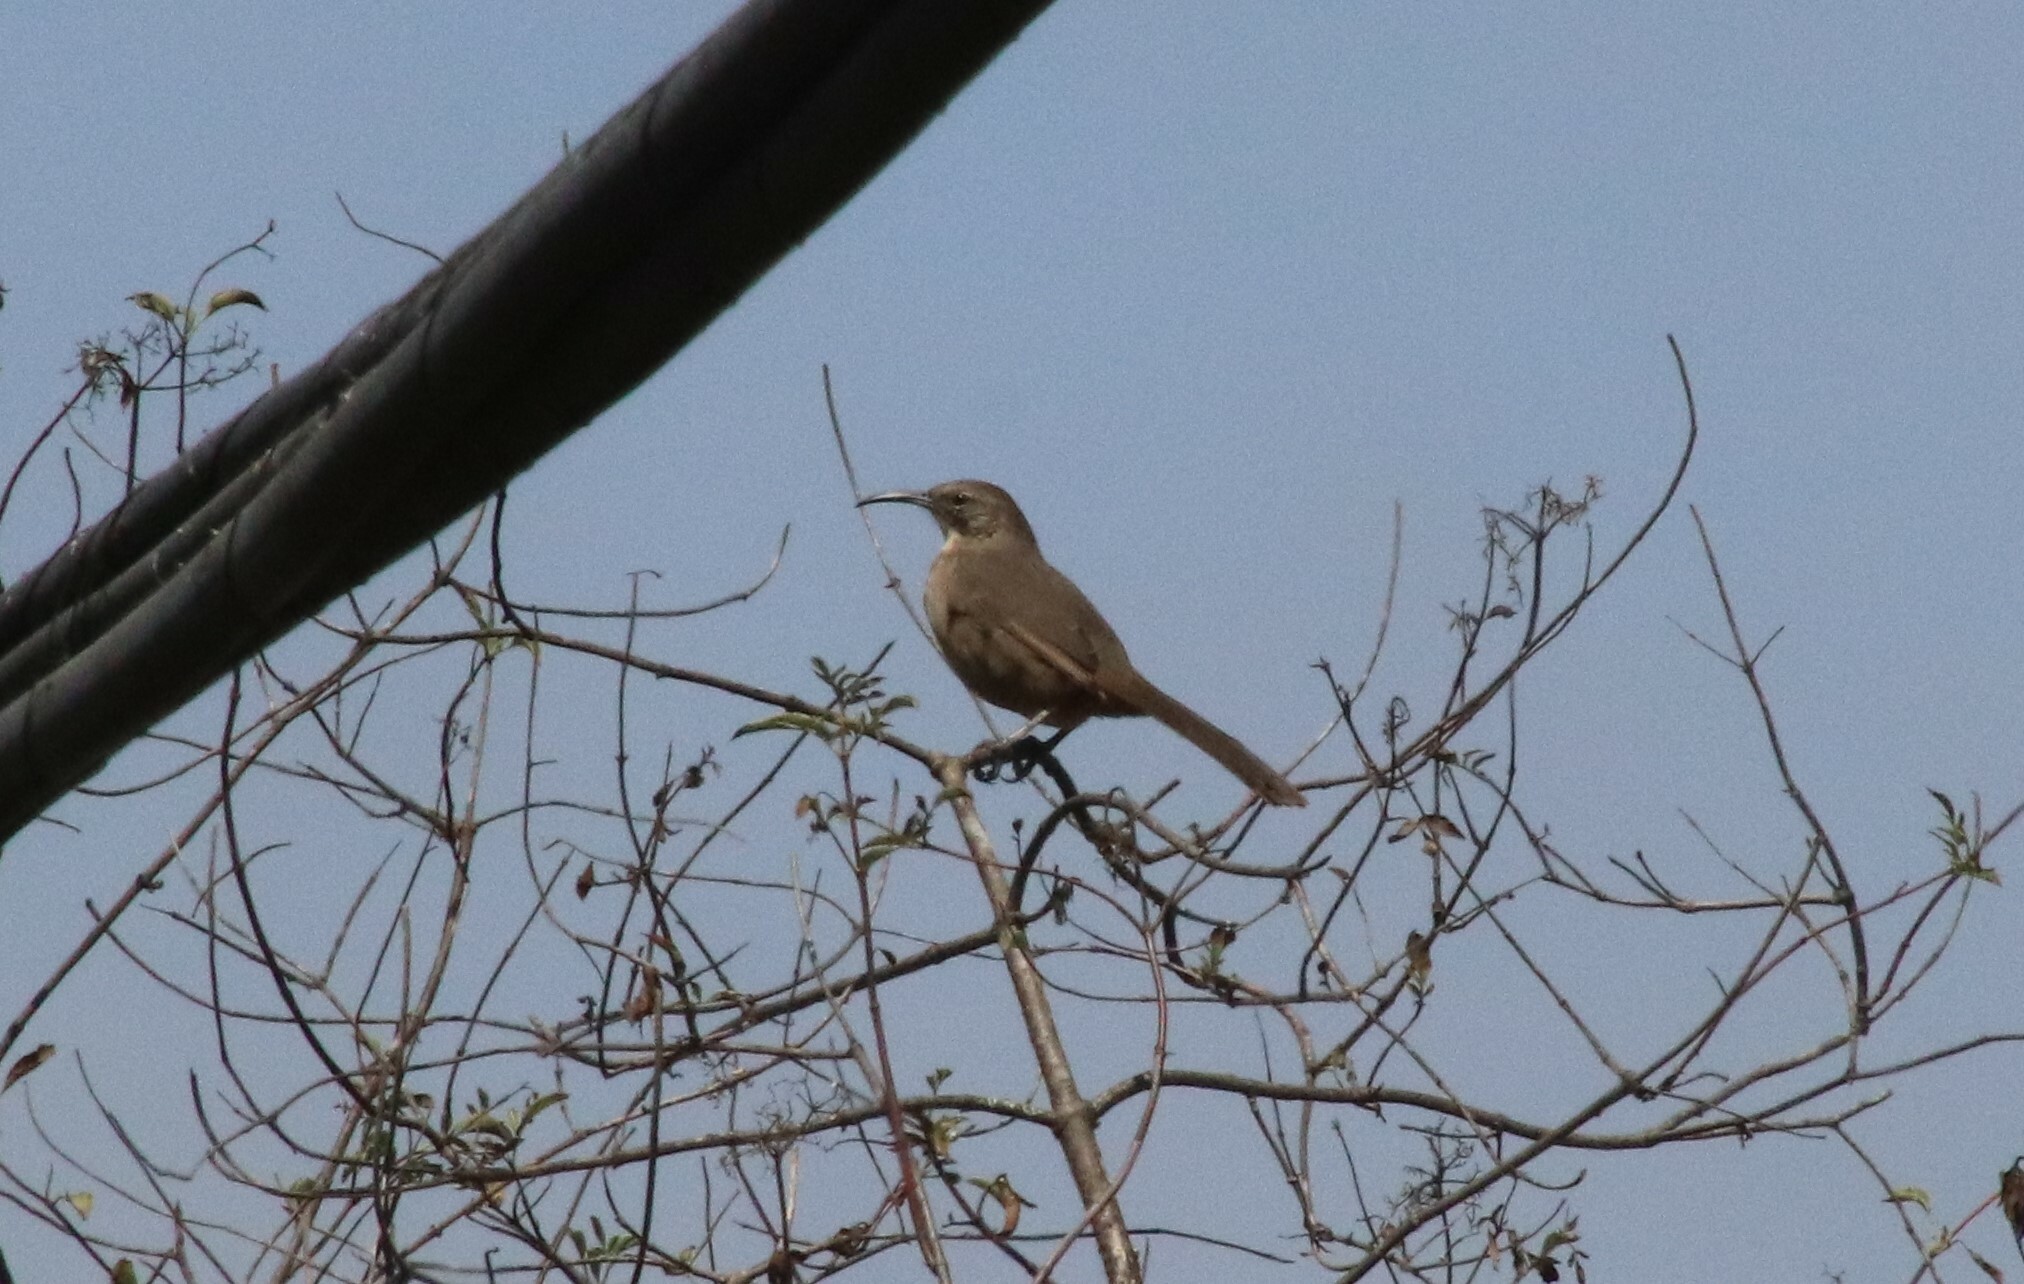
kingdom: Animalia
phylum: Chordata
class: Aves
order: Passeriformes
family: Mimidae
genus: Toxostoma
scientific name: Toxostoma redivivum
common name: California thrasher
